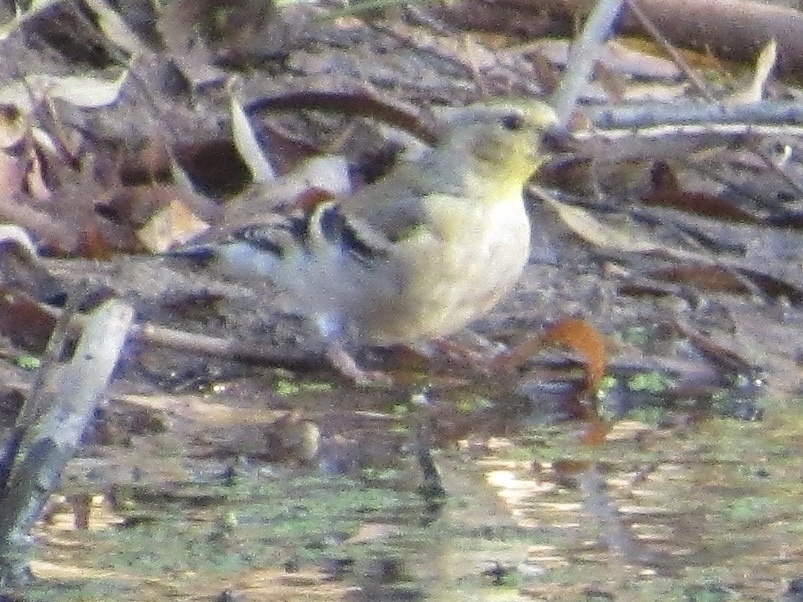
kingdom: Animalia
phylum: Chordata
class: Aves
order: Passeriformes
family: Fringillidae
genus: Spinus
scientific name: Spinus tristis
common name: American goldfinch
